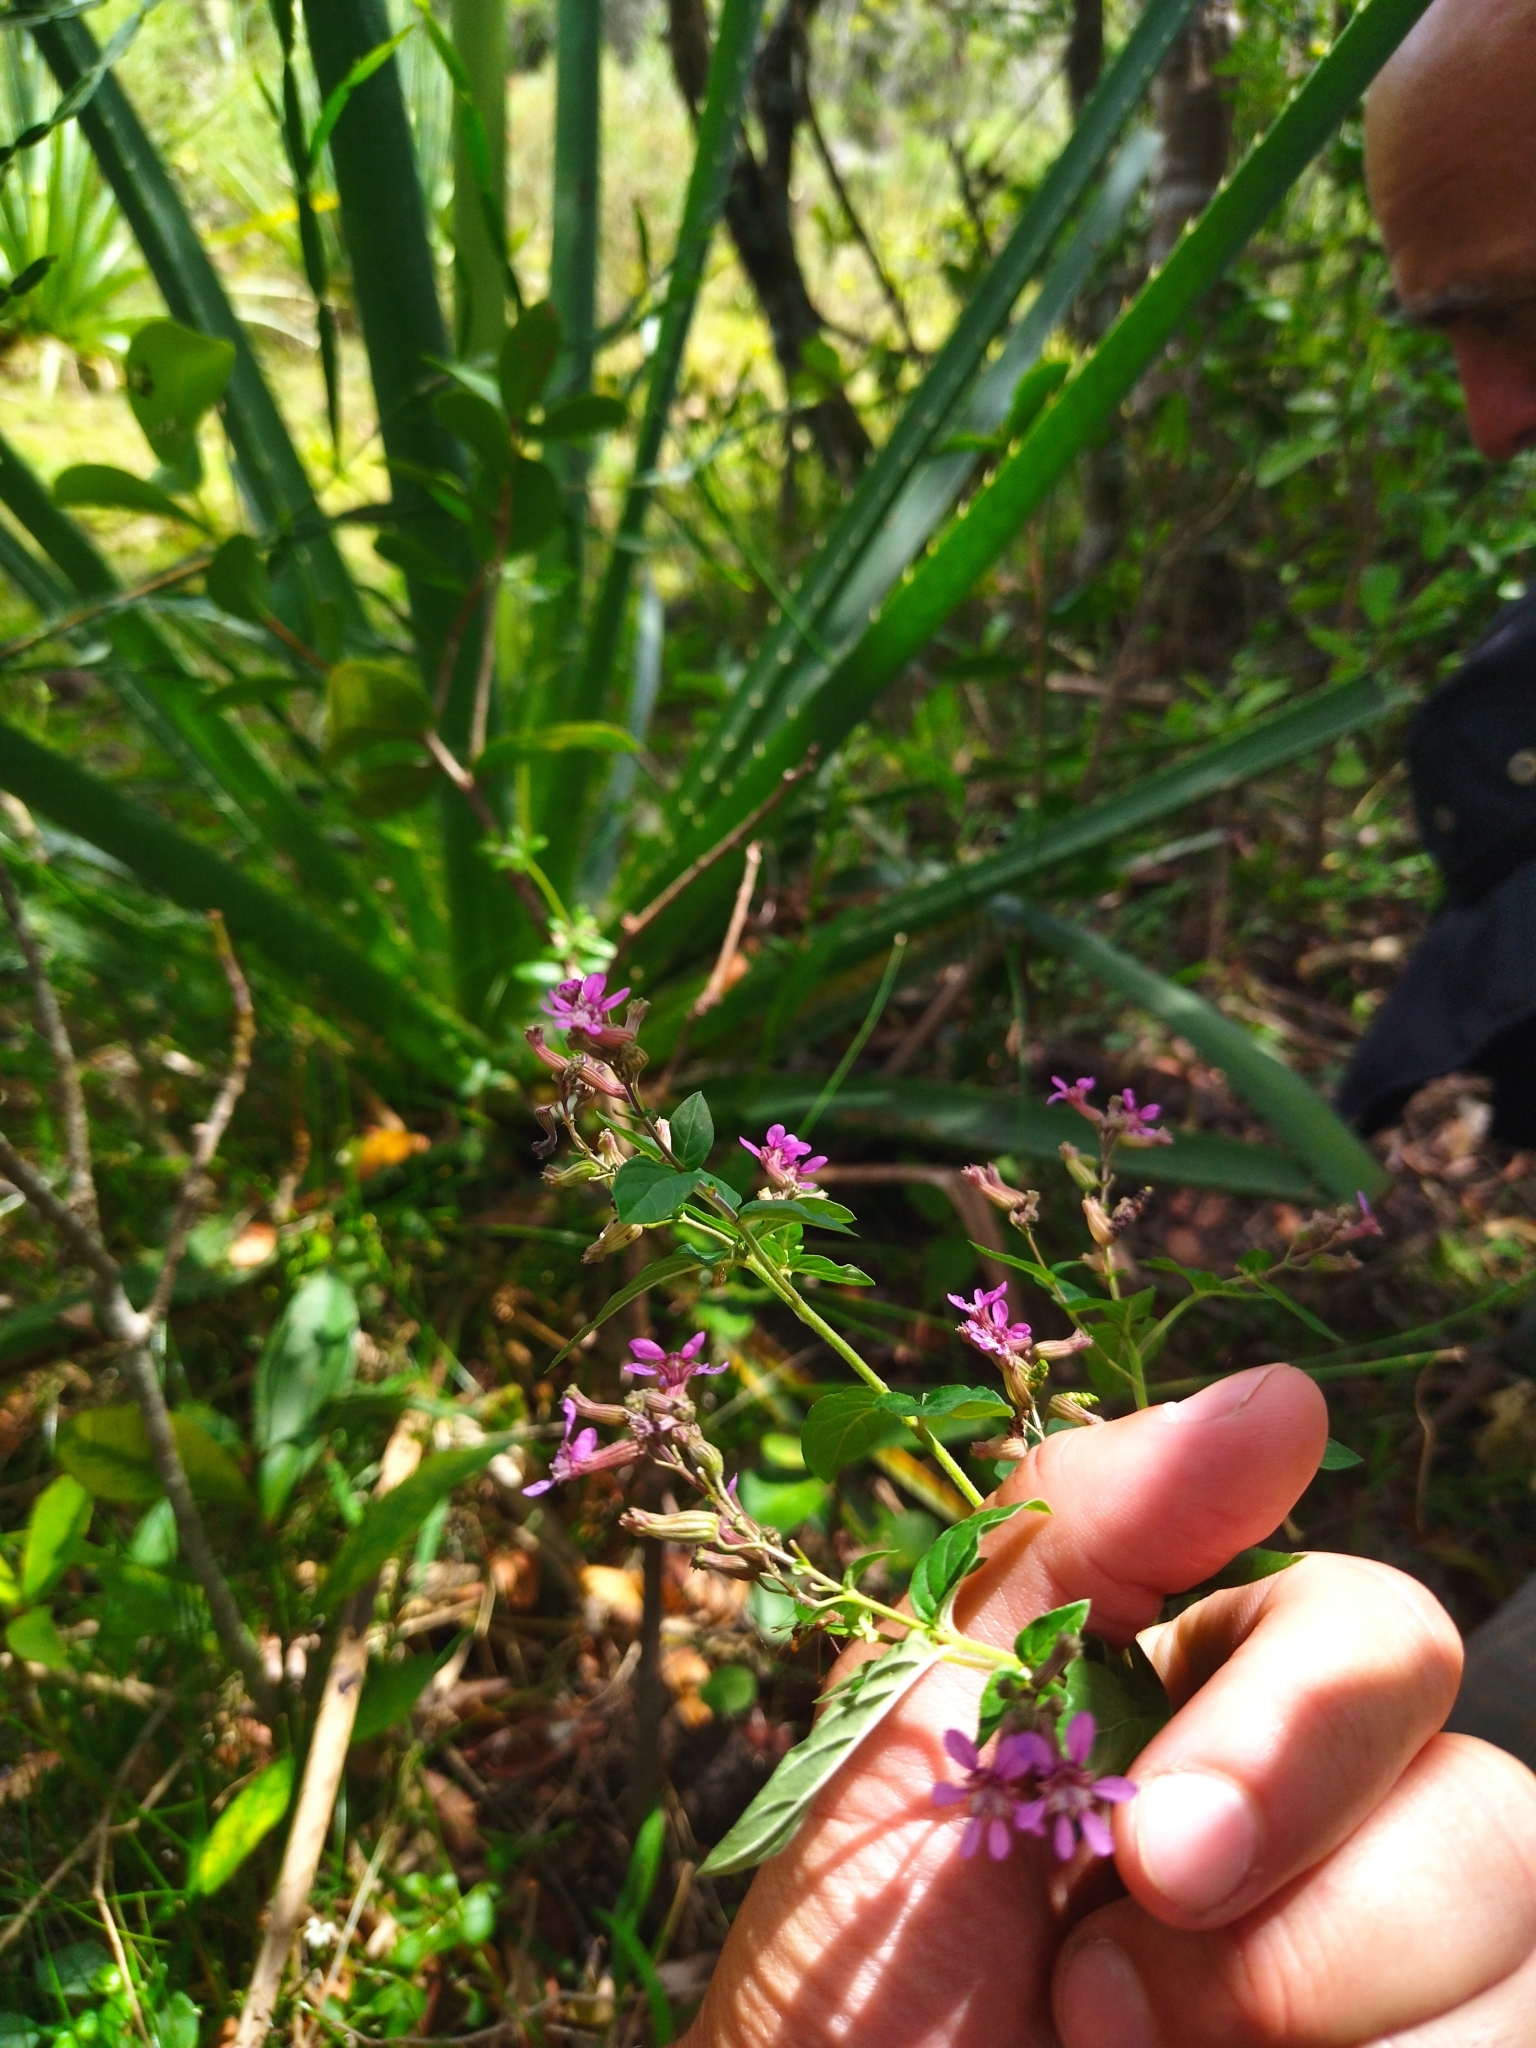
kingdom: Plantae
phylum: Tracheophyta
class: Magnoliopsida
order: Myrtales
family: Lythraceae
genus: Cuphea
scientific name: Cuphea racemosa
